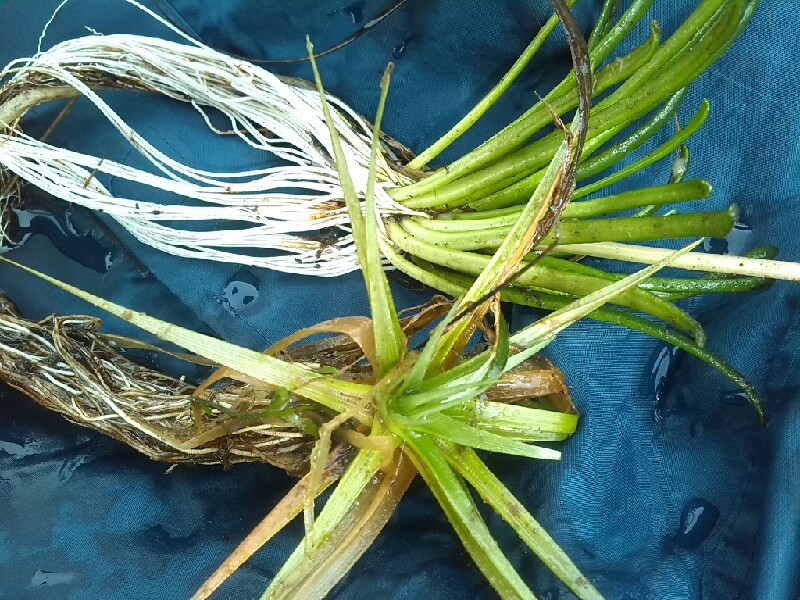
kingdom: Plantae
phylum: Tracheophyta
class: Magnoliopsida
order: Asterales
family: Campanulaceae
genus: Lobelia
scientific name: Lobelia dortmanna
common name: Water lobelia
